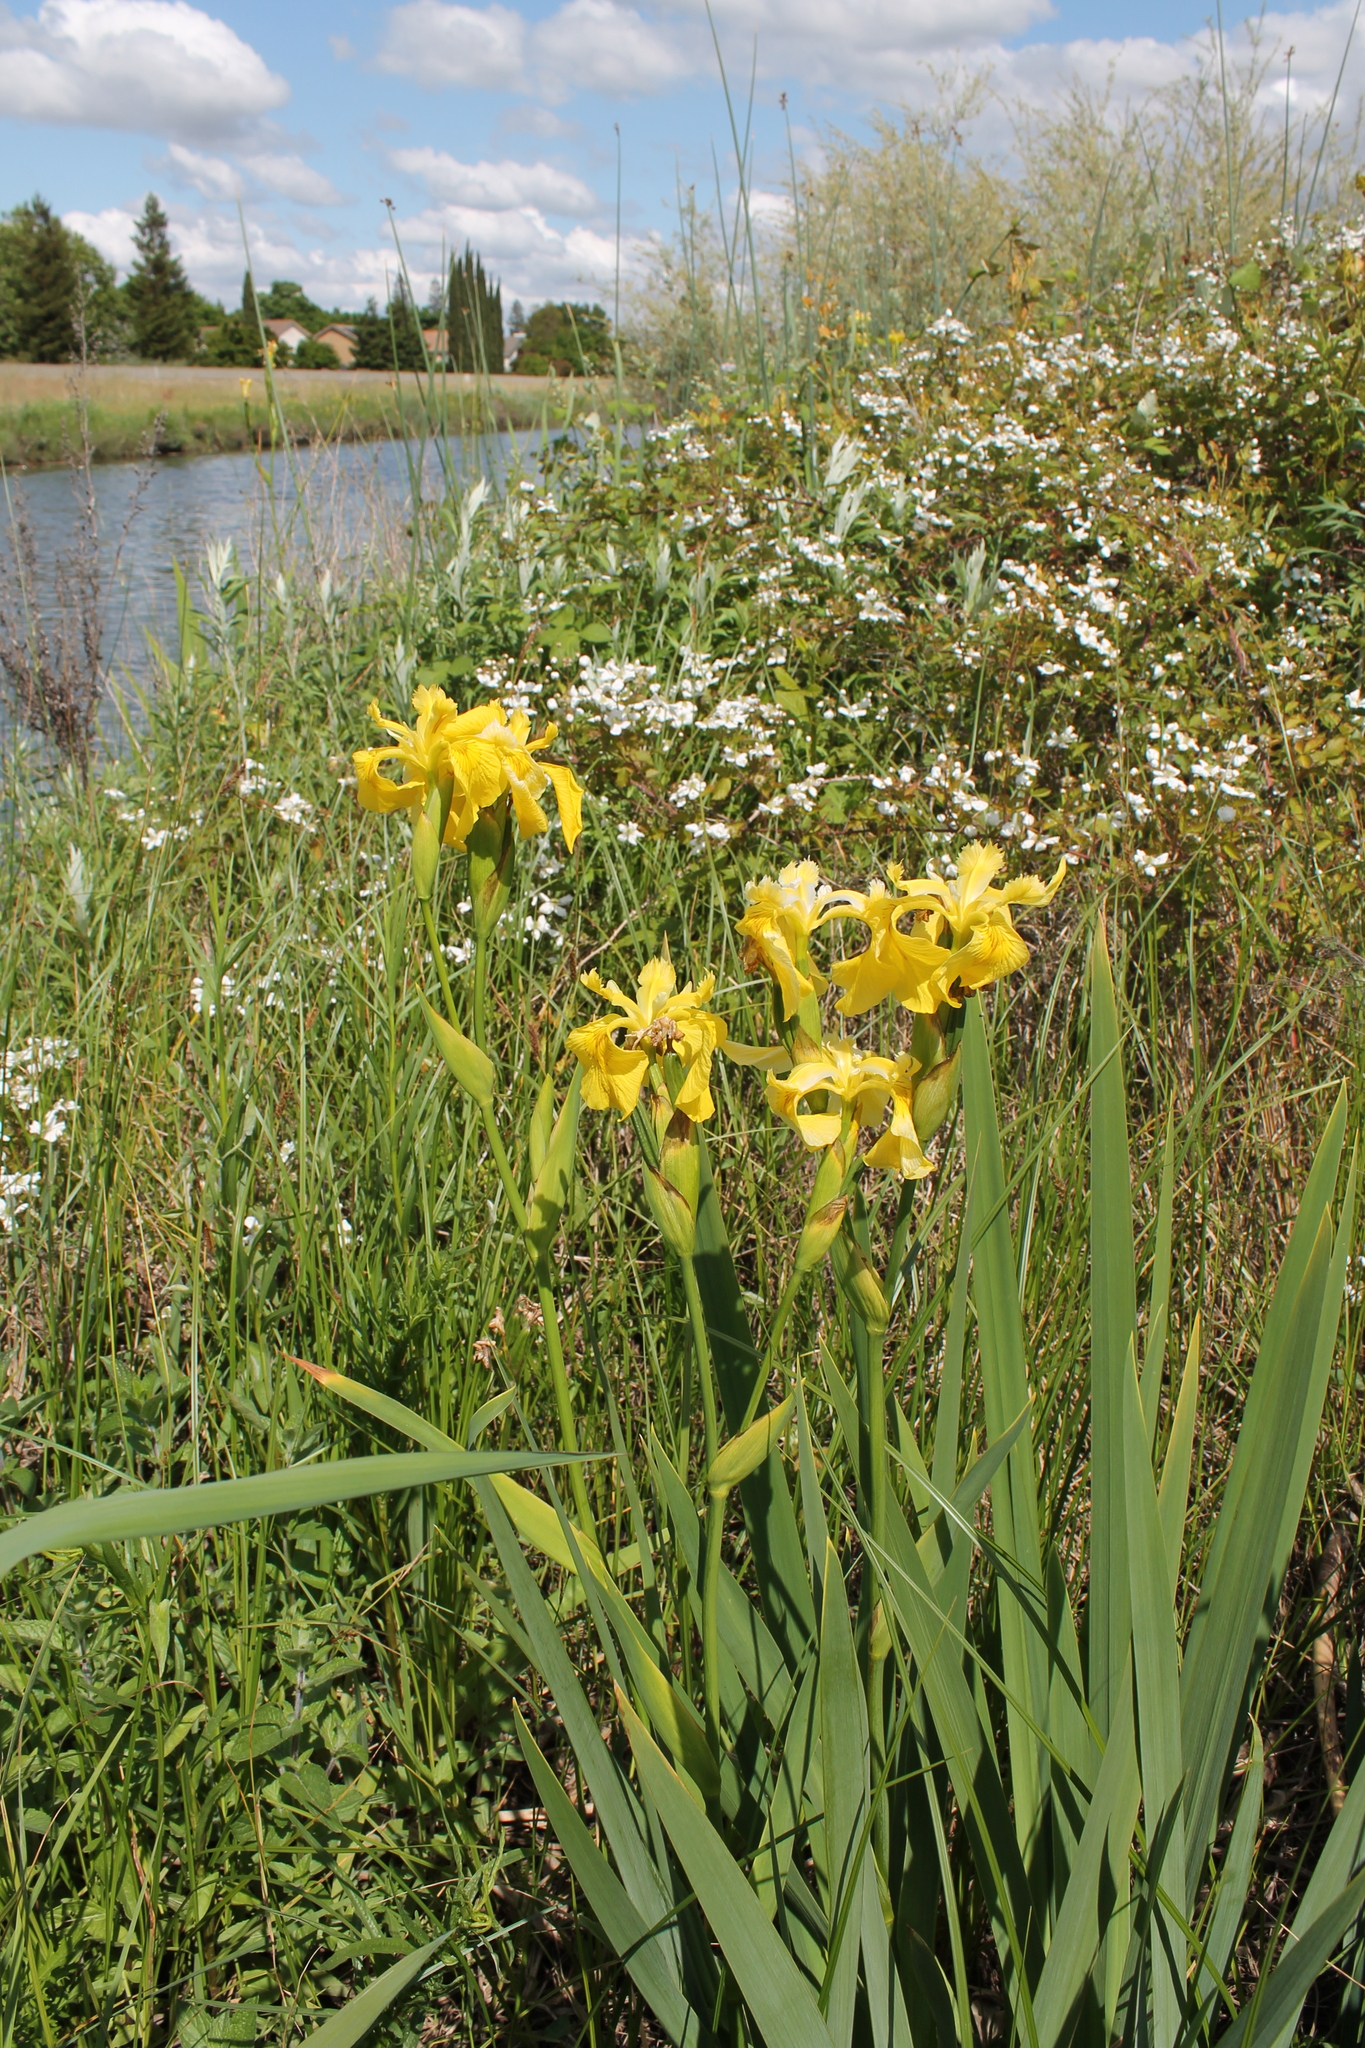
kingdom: Plantae
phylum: Tracheophyta
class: Liliopsida
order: Asparagales
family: Iridaceae
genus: Iris
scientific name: Iris pseudacorus
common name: Yellow flag
